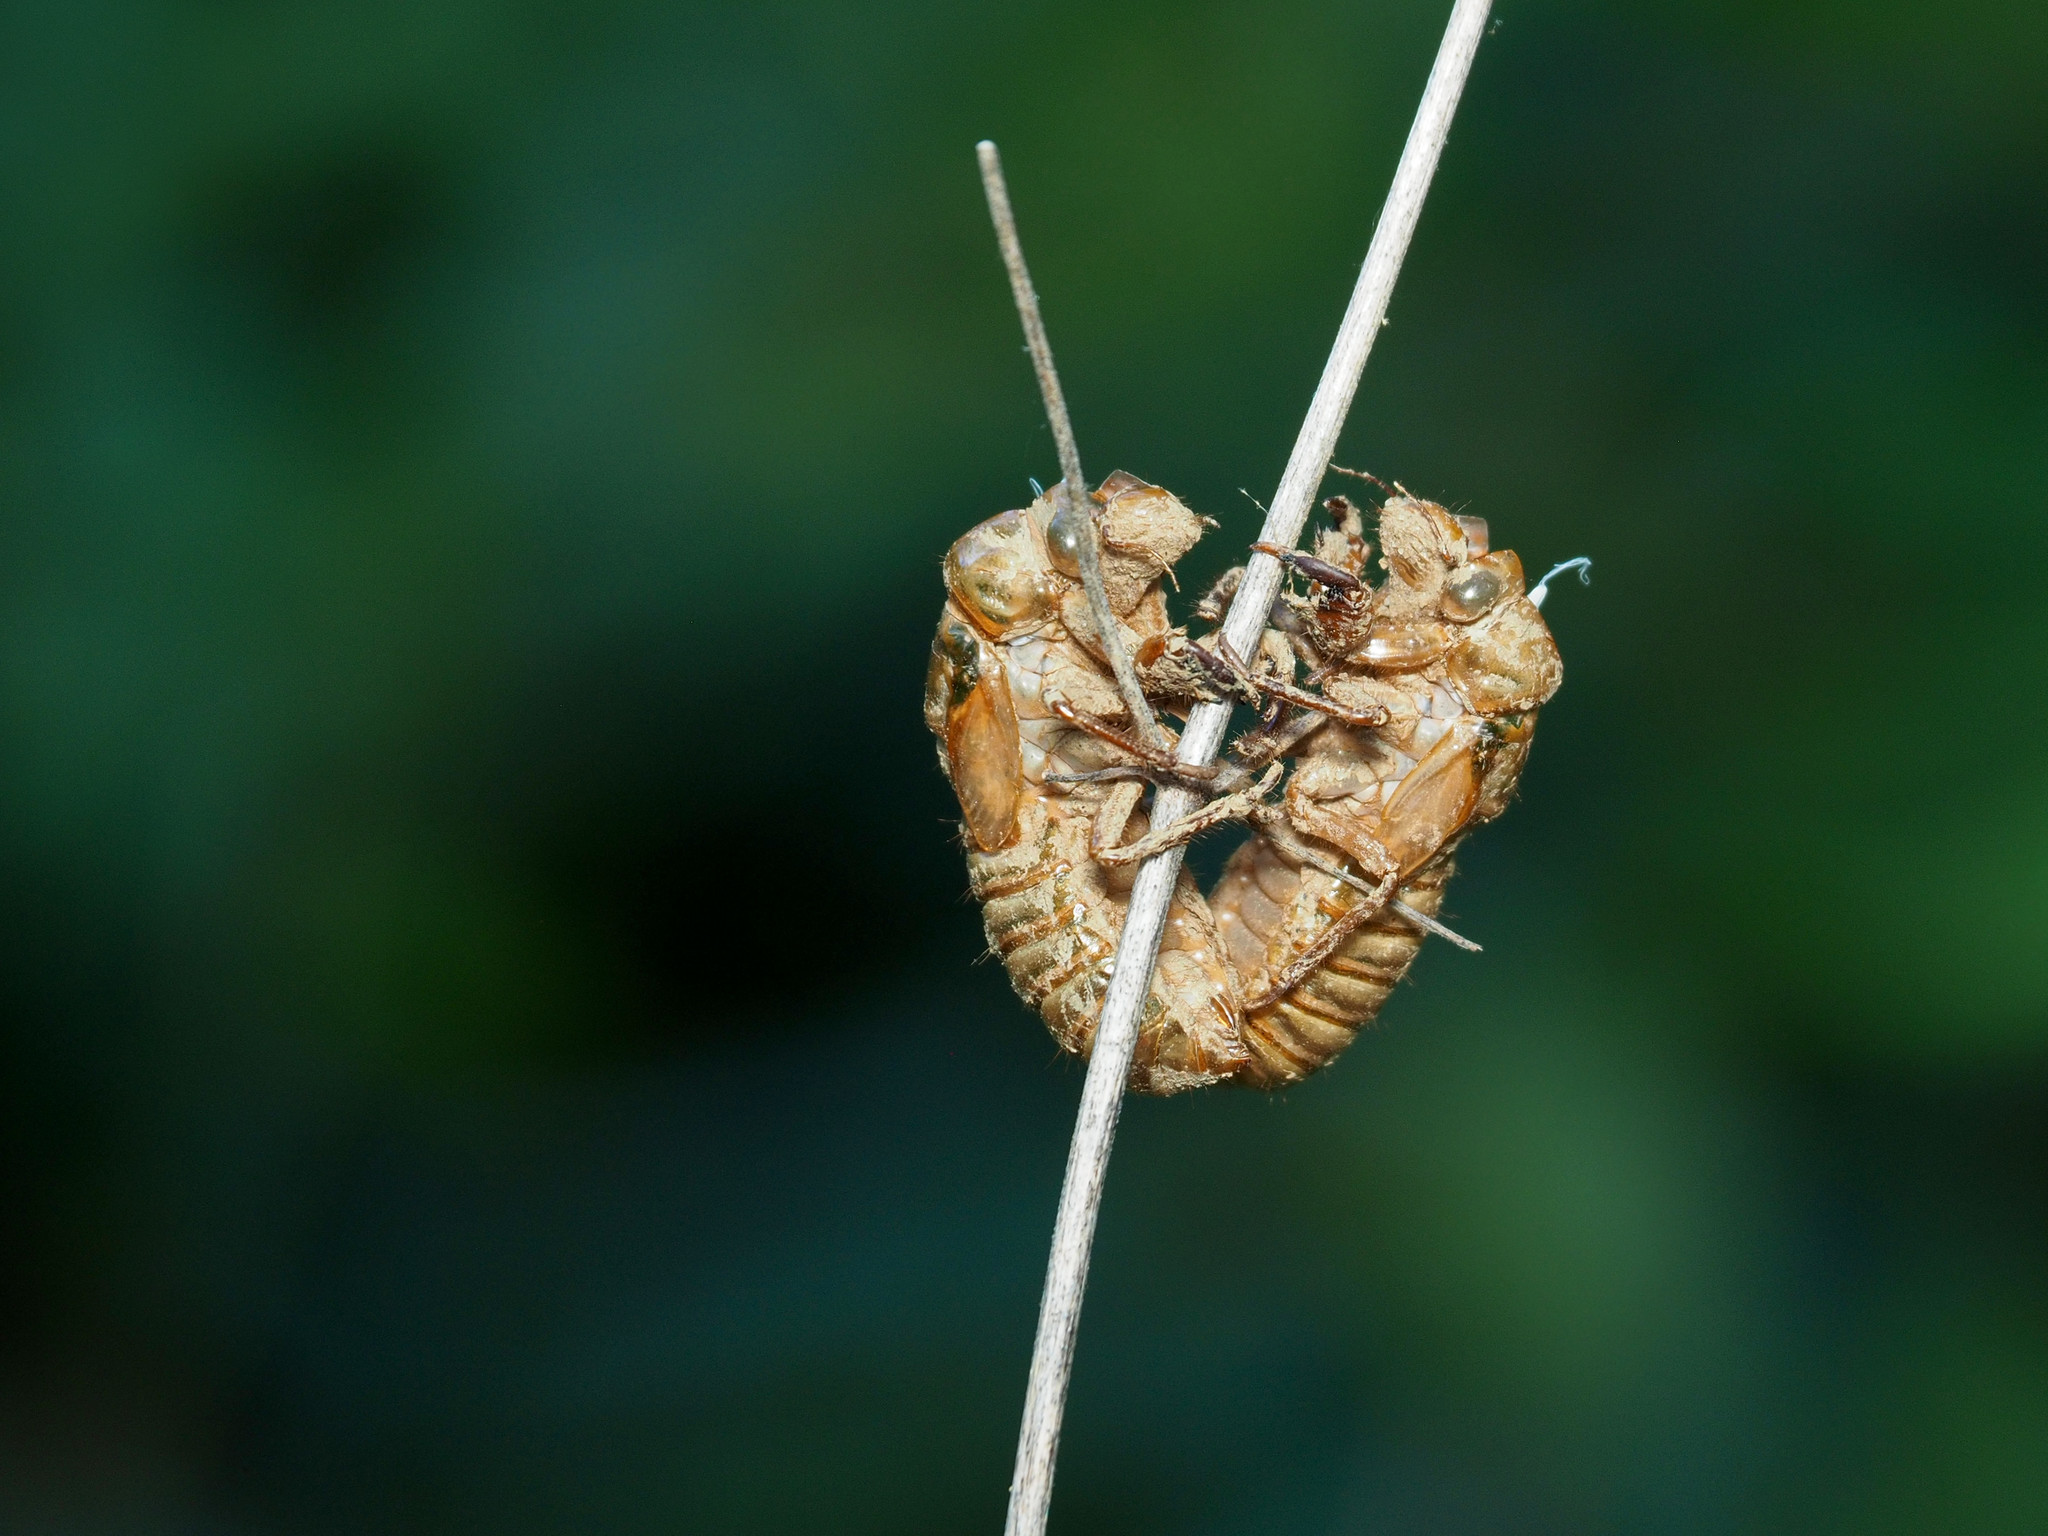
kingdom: Animalia
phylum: Arthropoda
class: Insecta
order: Hemiptera
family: Cicadidae
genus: Magicicada
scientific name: Magicicada
